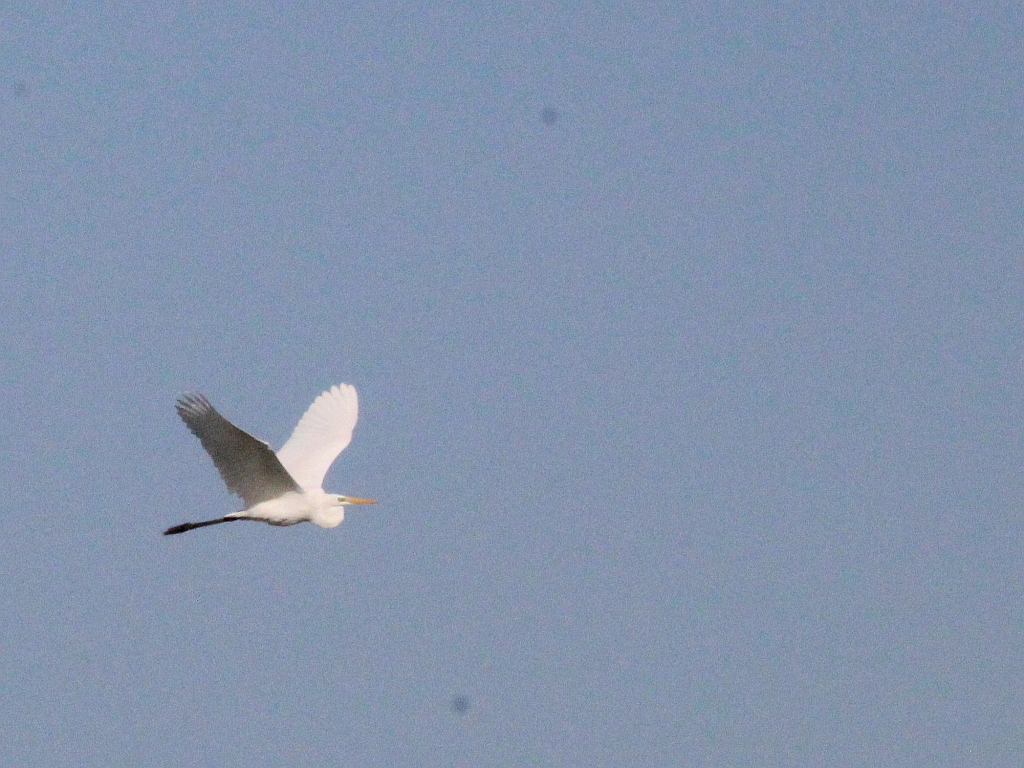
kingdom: Animalia
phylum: Chordata
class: Aves
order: Pelecaniformes
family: Ardeidae
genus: Ardea
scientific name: Ardea alba
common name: Great egret
